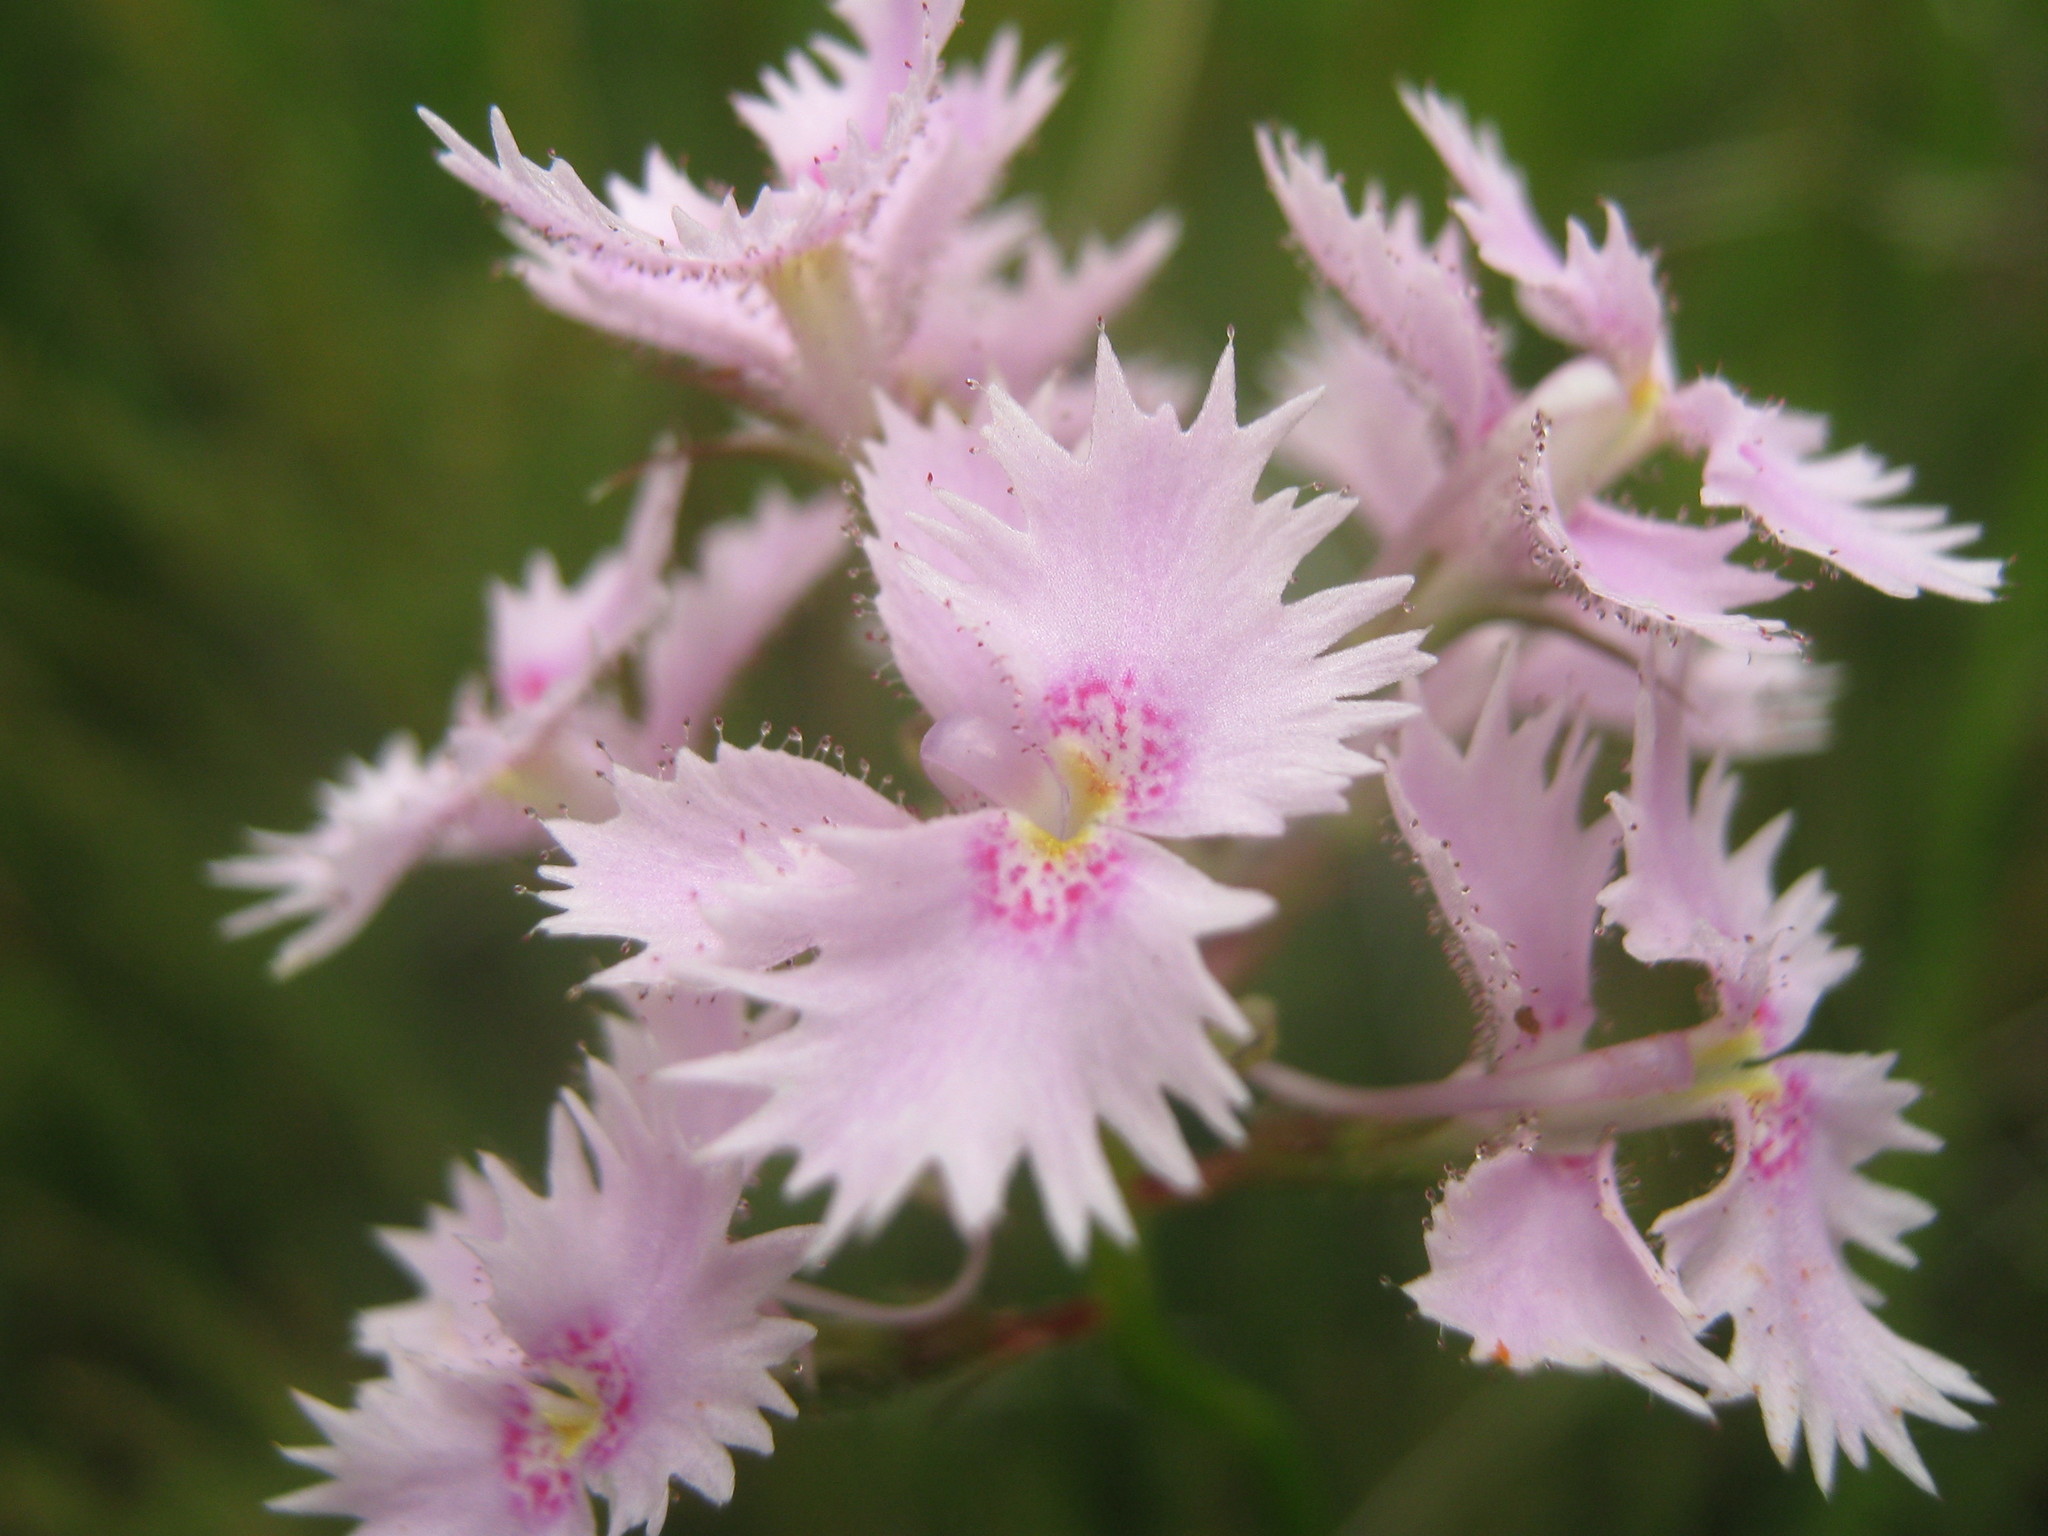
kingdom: Plantae
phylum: Tracheophyta
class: Magnoliopsida
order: Asterales
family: Stylidiaceae
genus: Stylidium
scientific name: Stylidium laciniatum
